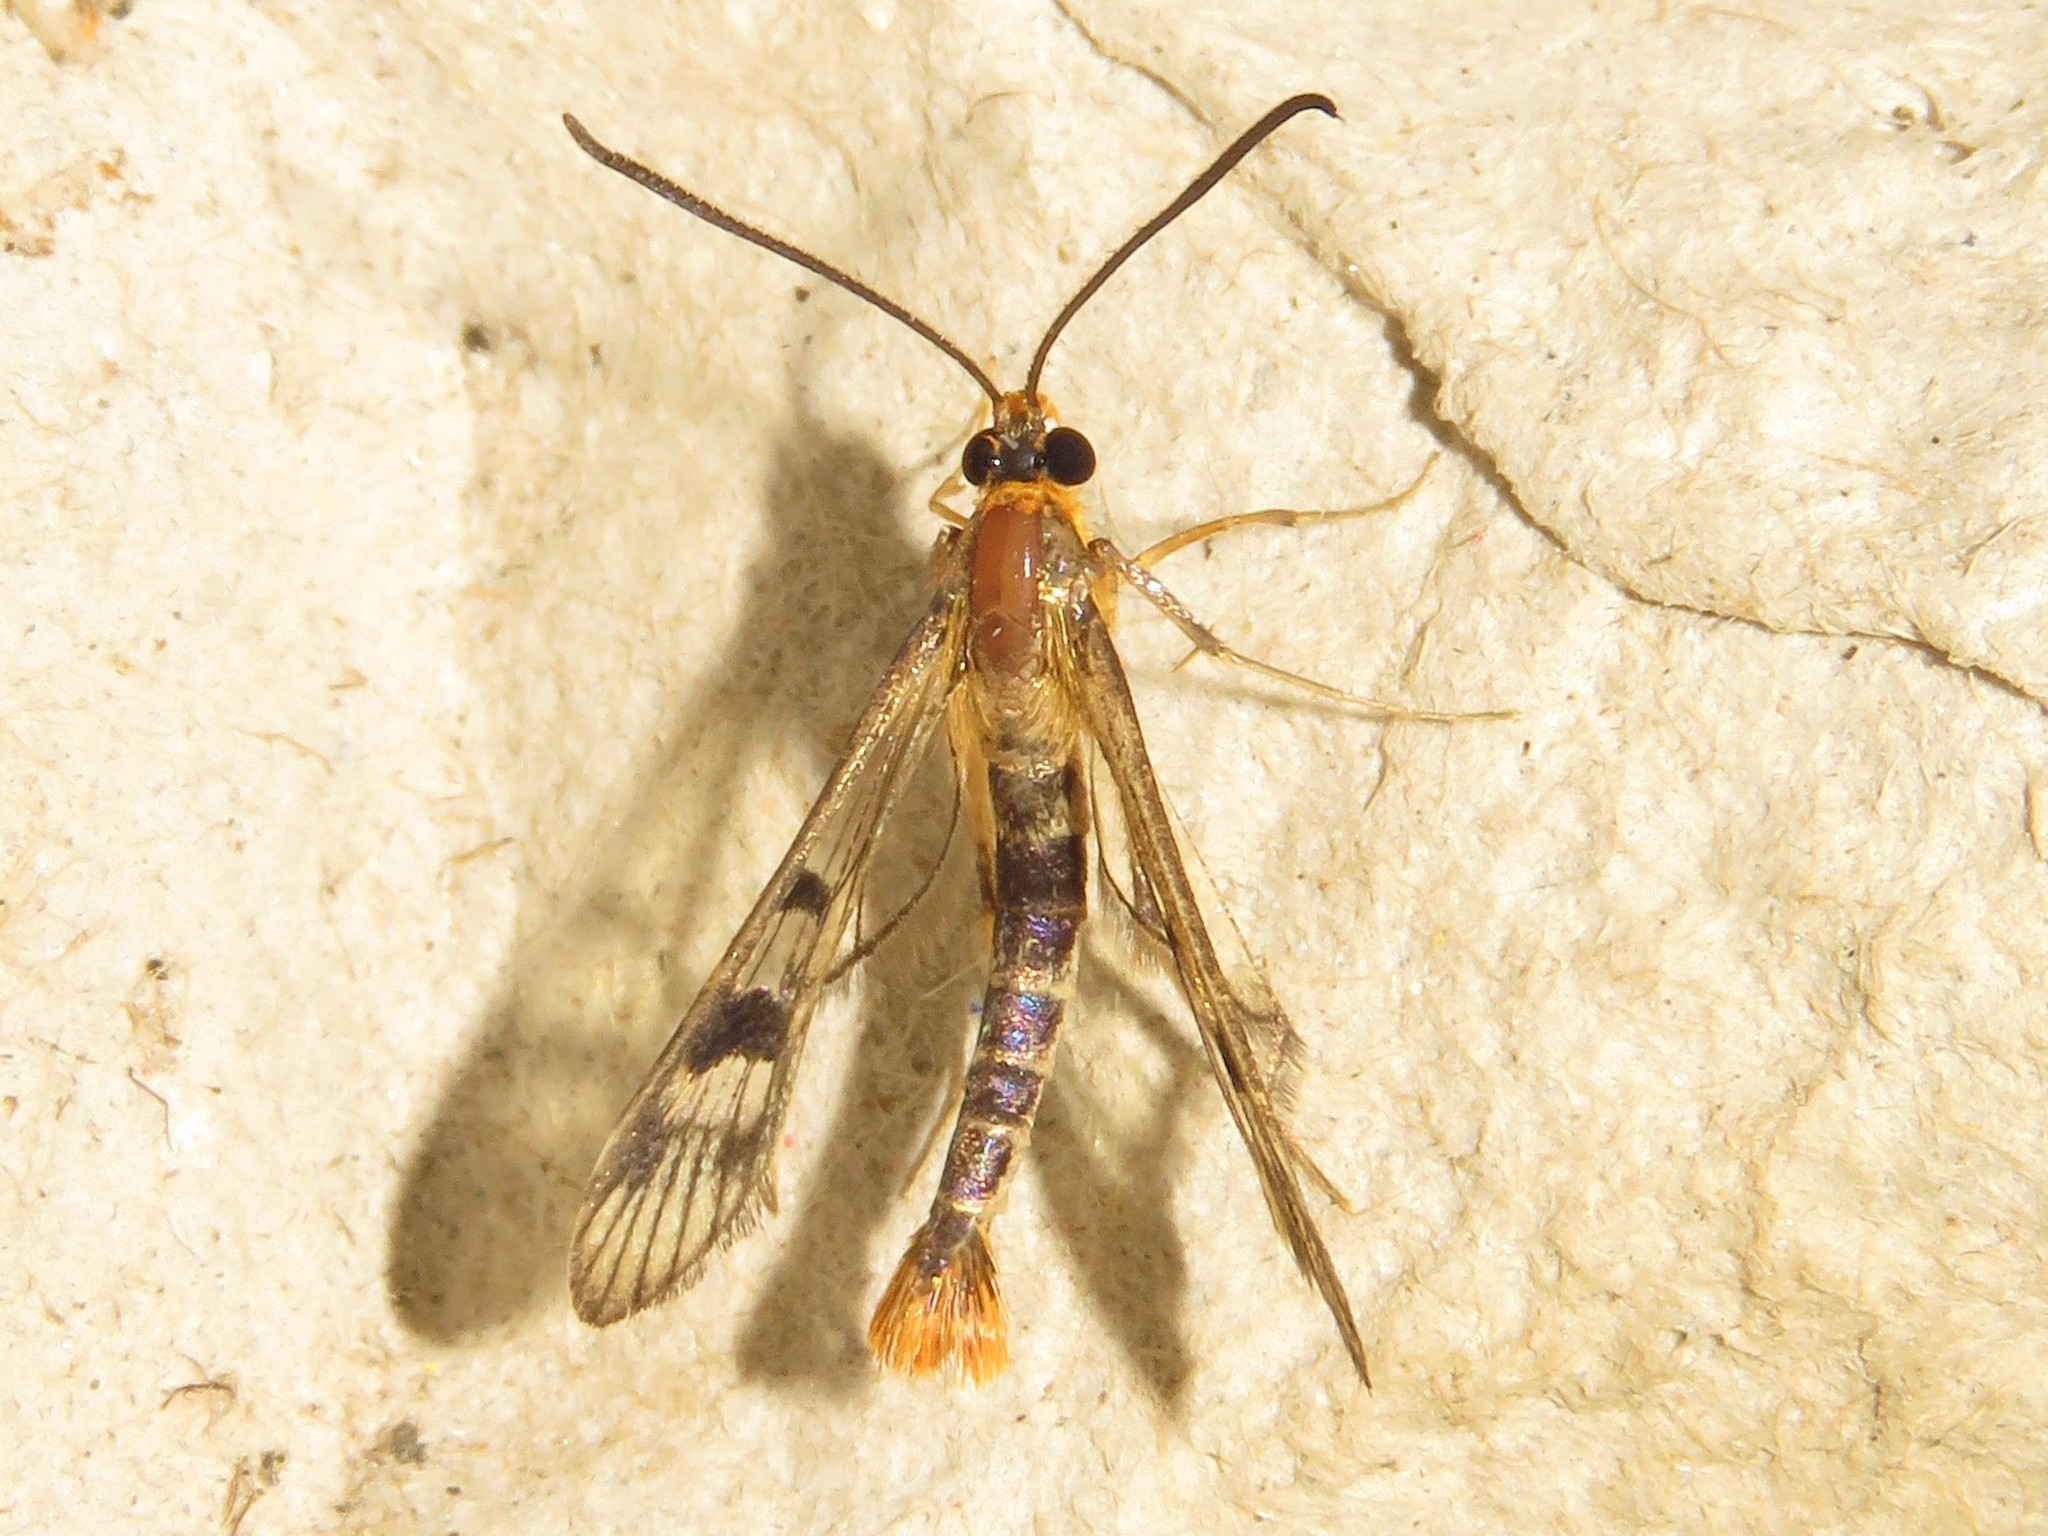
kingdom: Animalia
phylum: Arthropoda
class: Insecta
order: Lepidoptera
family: Sesiidae
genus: Synanthedon
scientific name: Synanthedon acerni
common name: Maple callus borer moth
